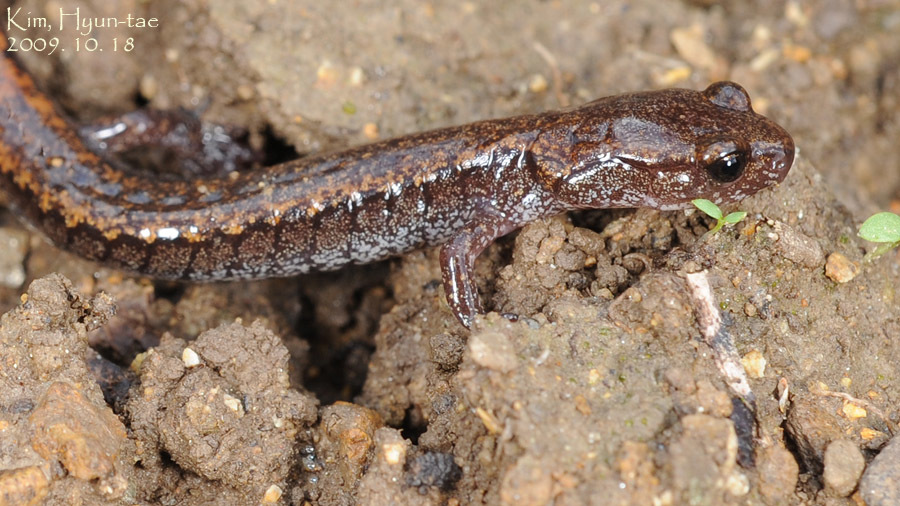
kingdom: Animalia
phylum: Chordata
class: Amphibia
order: Caudata
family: Plethodontidae
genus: Karsenia
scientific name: Karsenia koreana
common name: Korean crevice salamander
